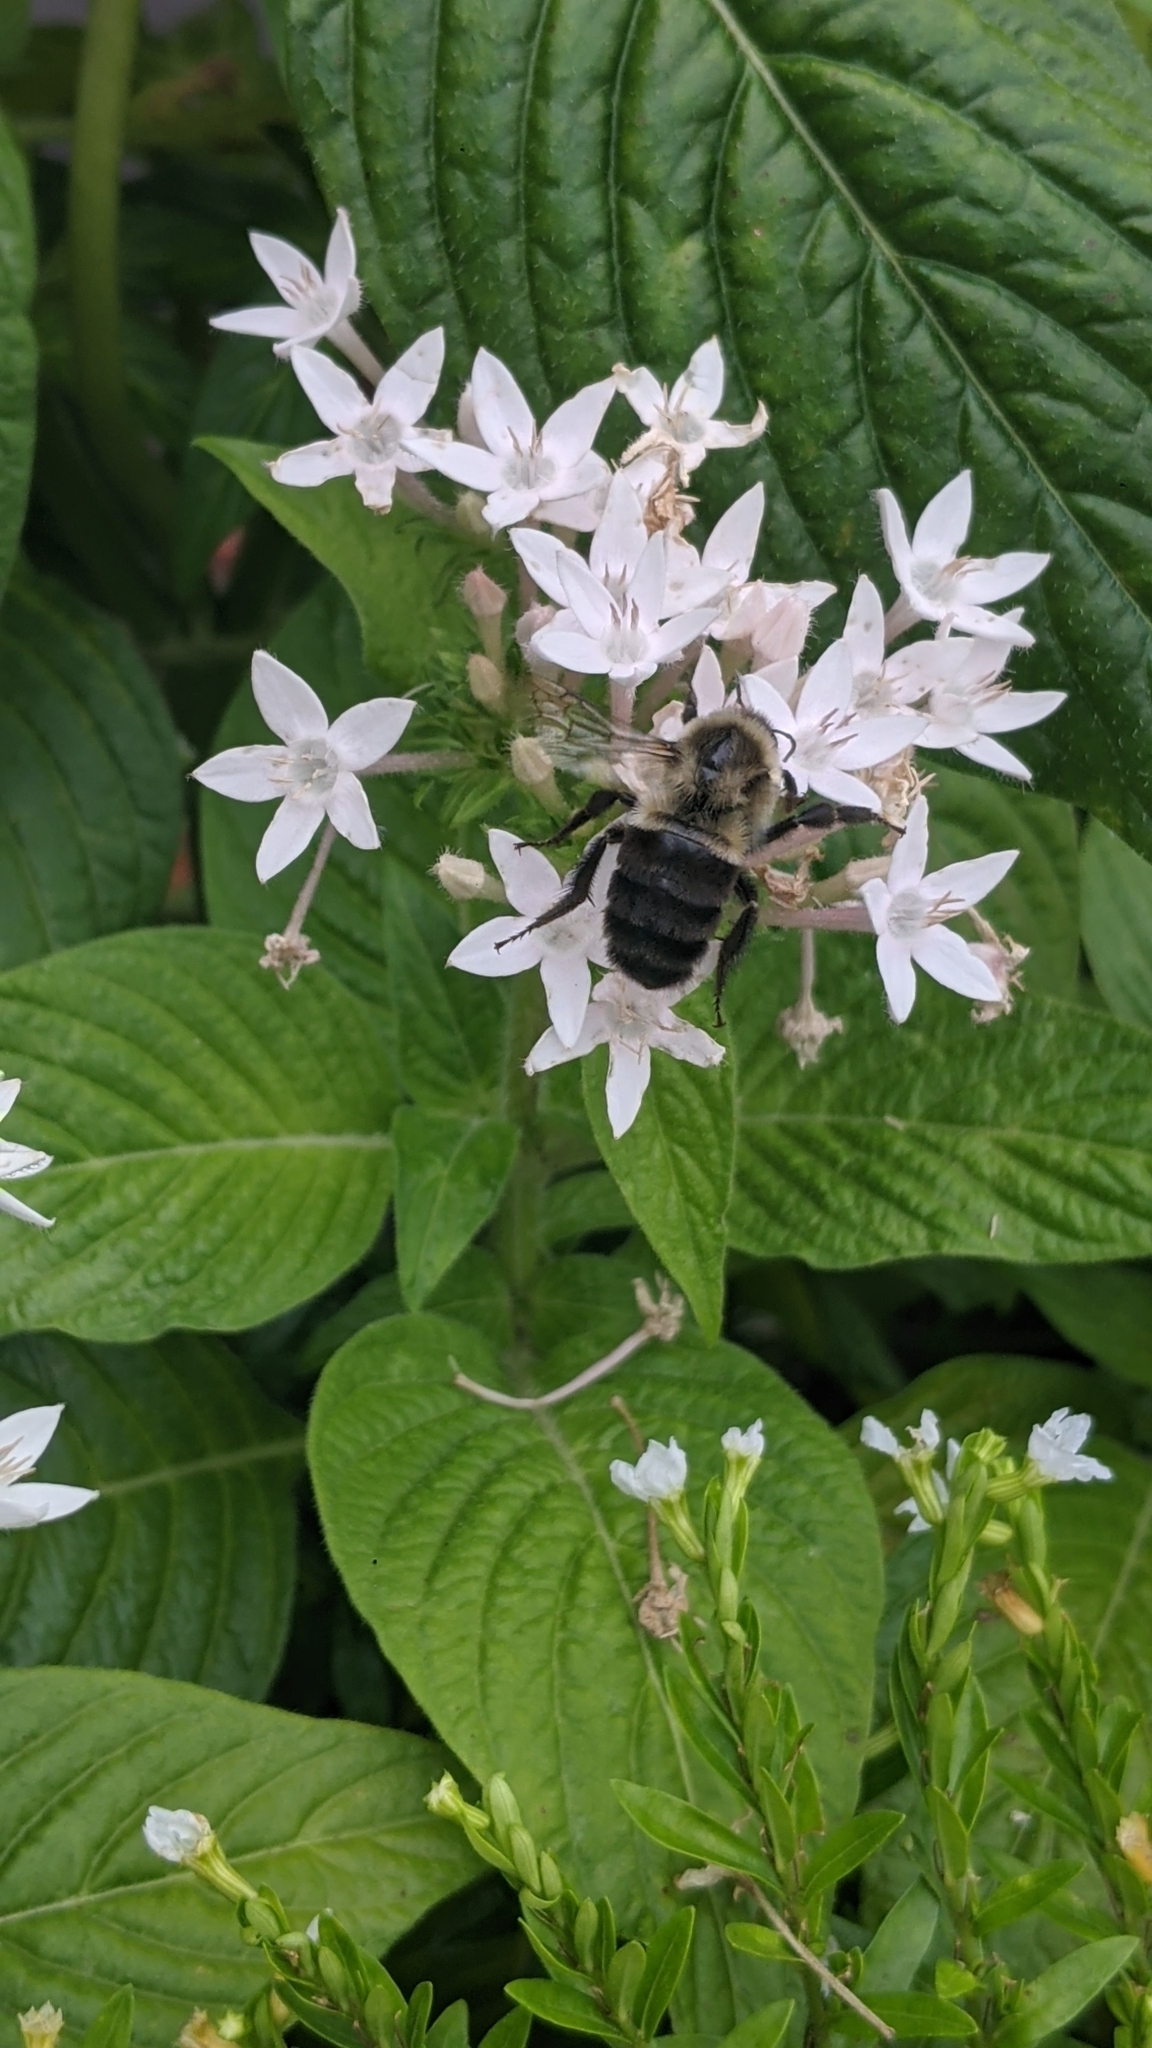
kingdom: Animalia
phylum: Arthropoda
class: Insecta
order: Hymenoptera
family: Apidae
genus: Bombus
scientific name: Bombus impatiens
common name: Common eastern bumble bee
